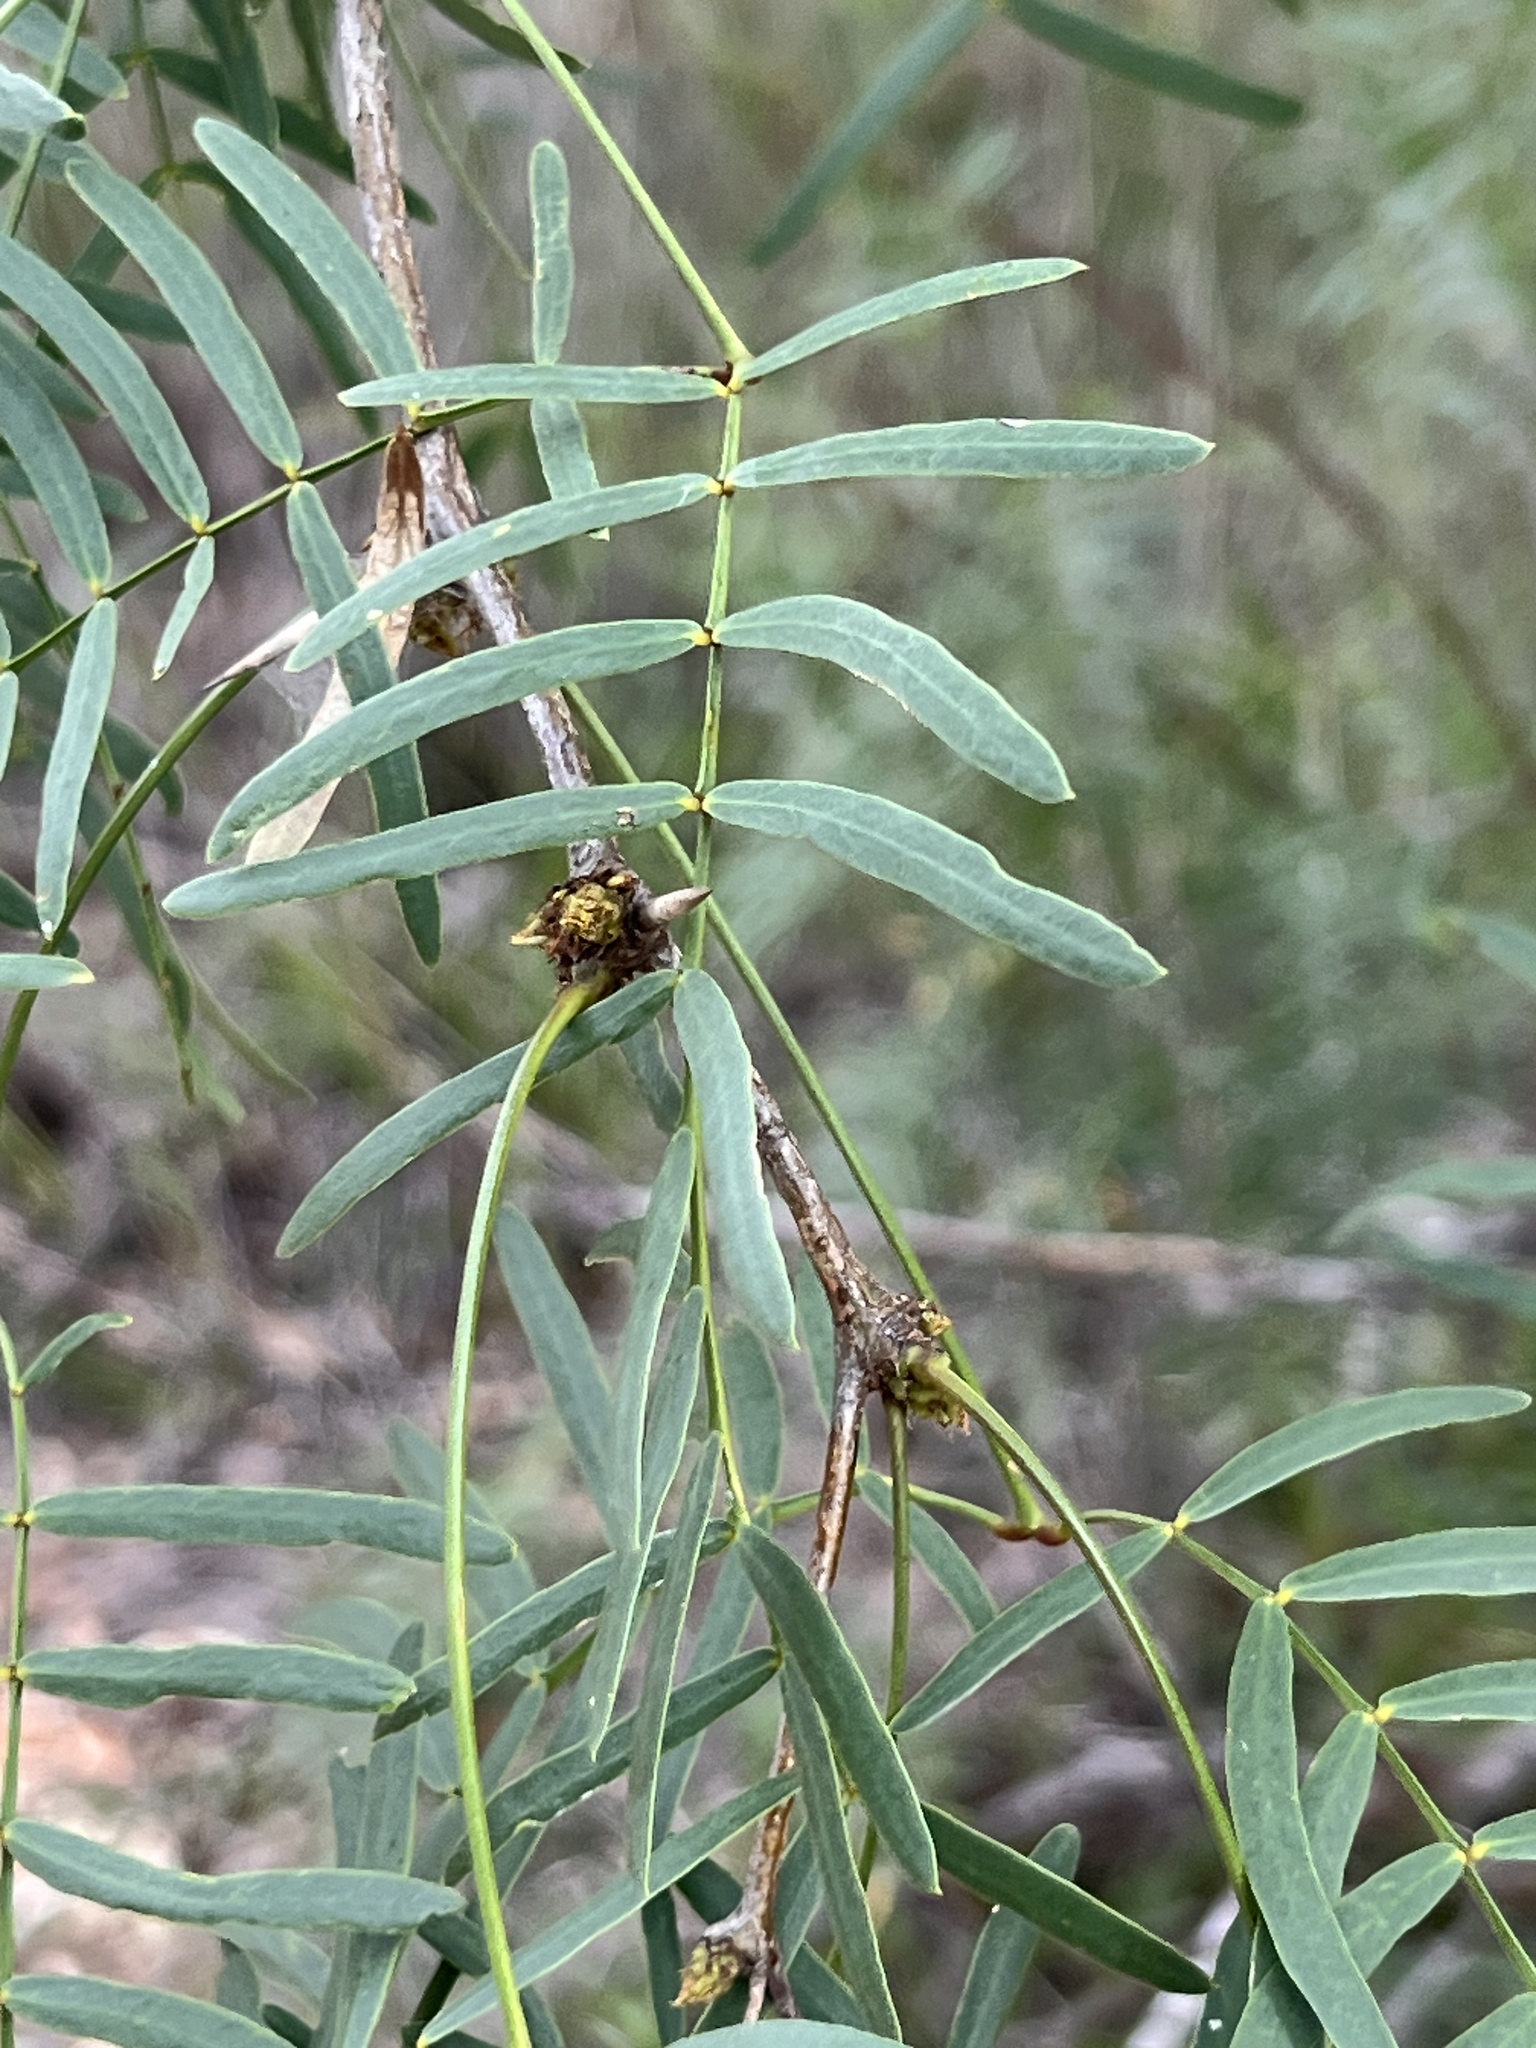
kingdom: Plantae
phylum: Tracheophyta
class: Magnoliopsida
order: Fabales
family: Fabaceae
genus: Prosopis
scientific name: Prosopis glandulosa
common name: Honey mesquite
